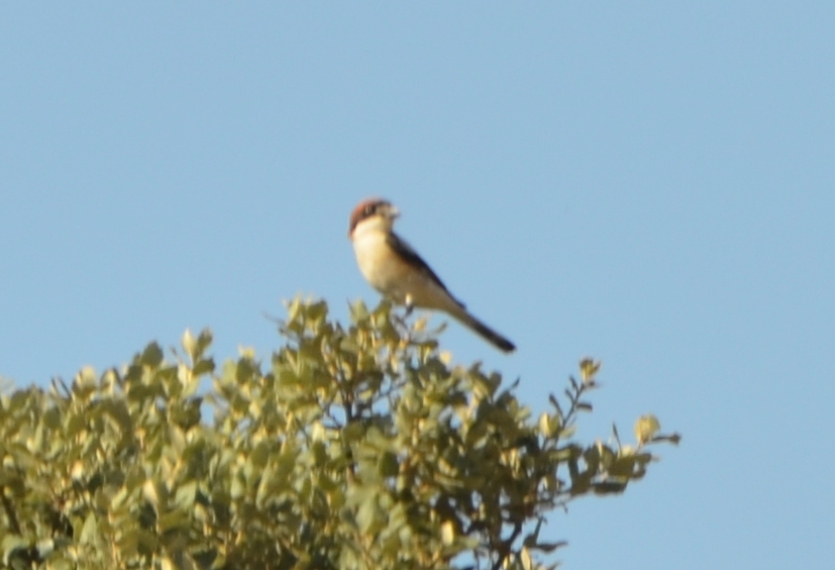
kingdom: Animalia
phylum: Chordata
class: Aves
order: Passeriformes
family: Laniidae
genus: Lanius
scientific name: Lanius senator
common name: Woodchat shrike
